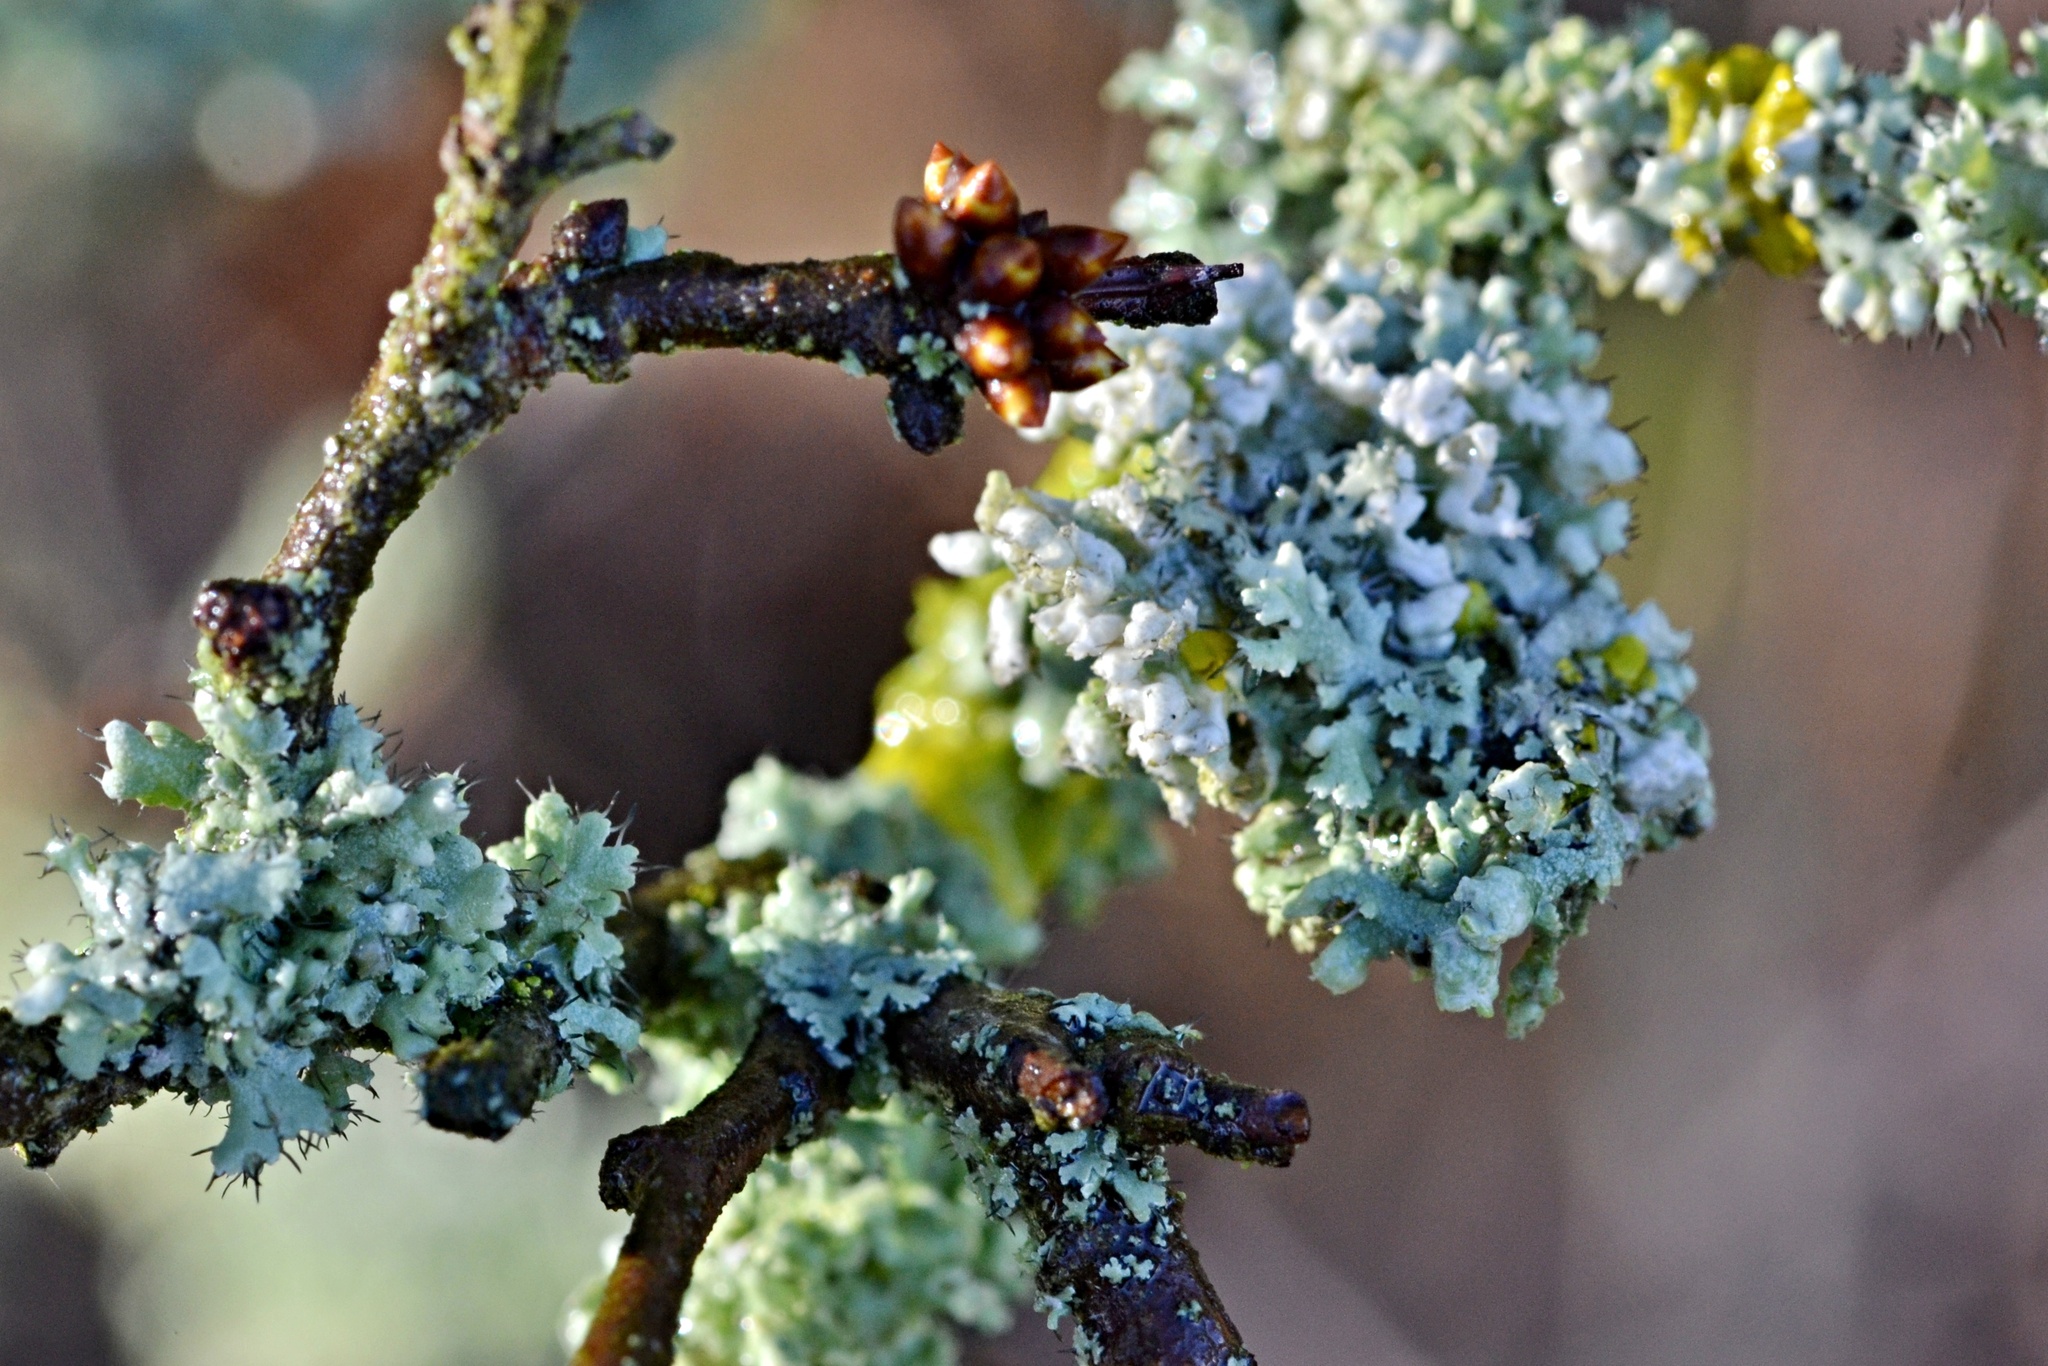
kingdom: Fungi
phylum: Ascomycota
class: Lecanoromycetes
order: Caliciales
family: Physciaceae
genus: Physcia
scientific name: Physcia adscendens
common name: Hooded rosette lichen
